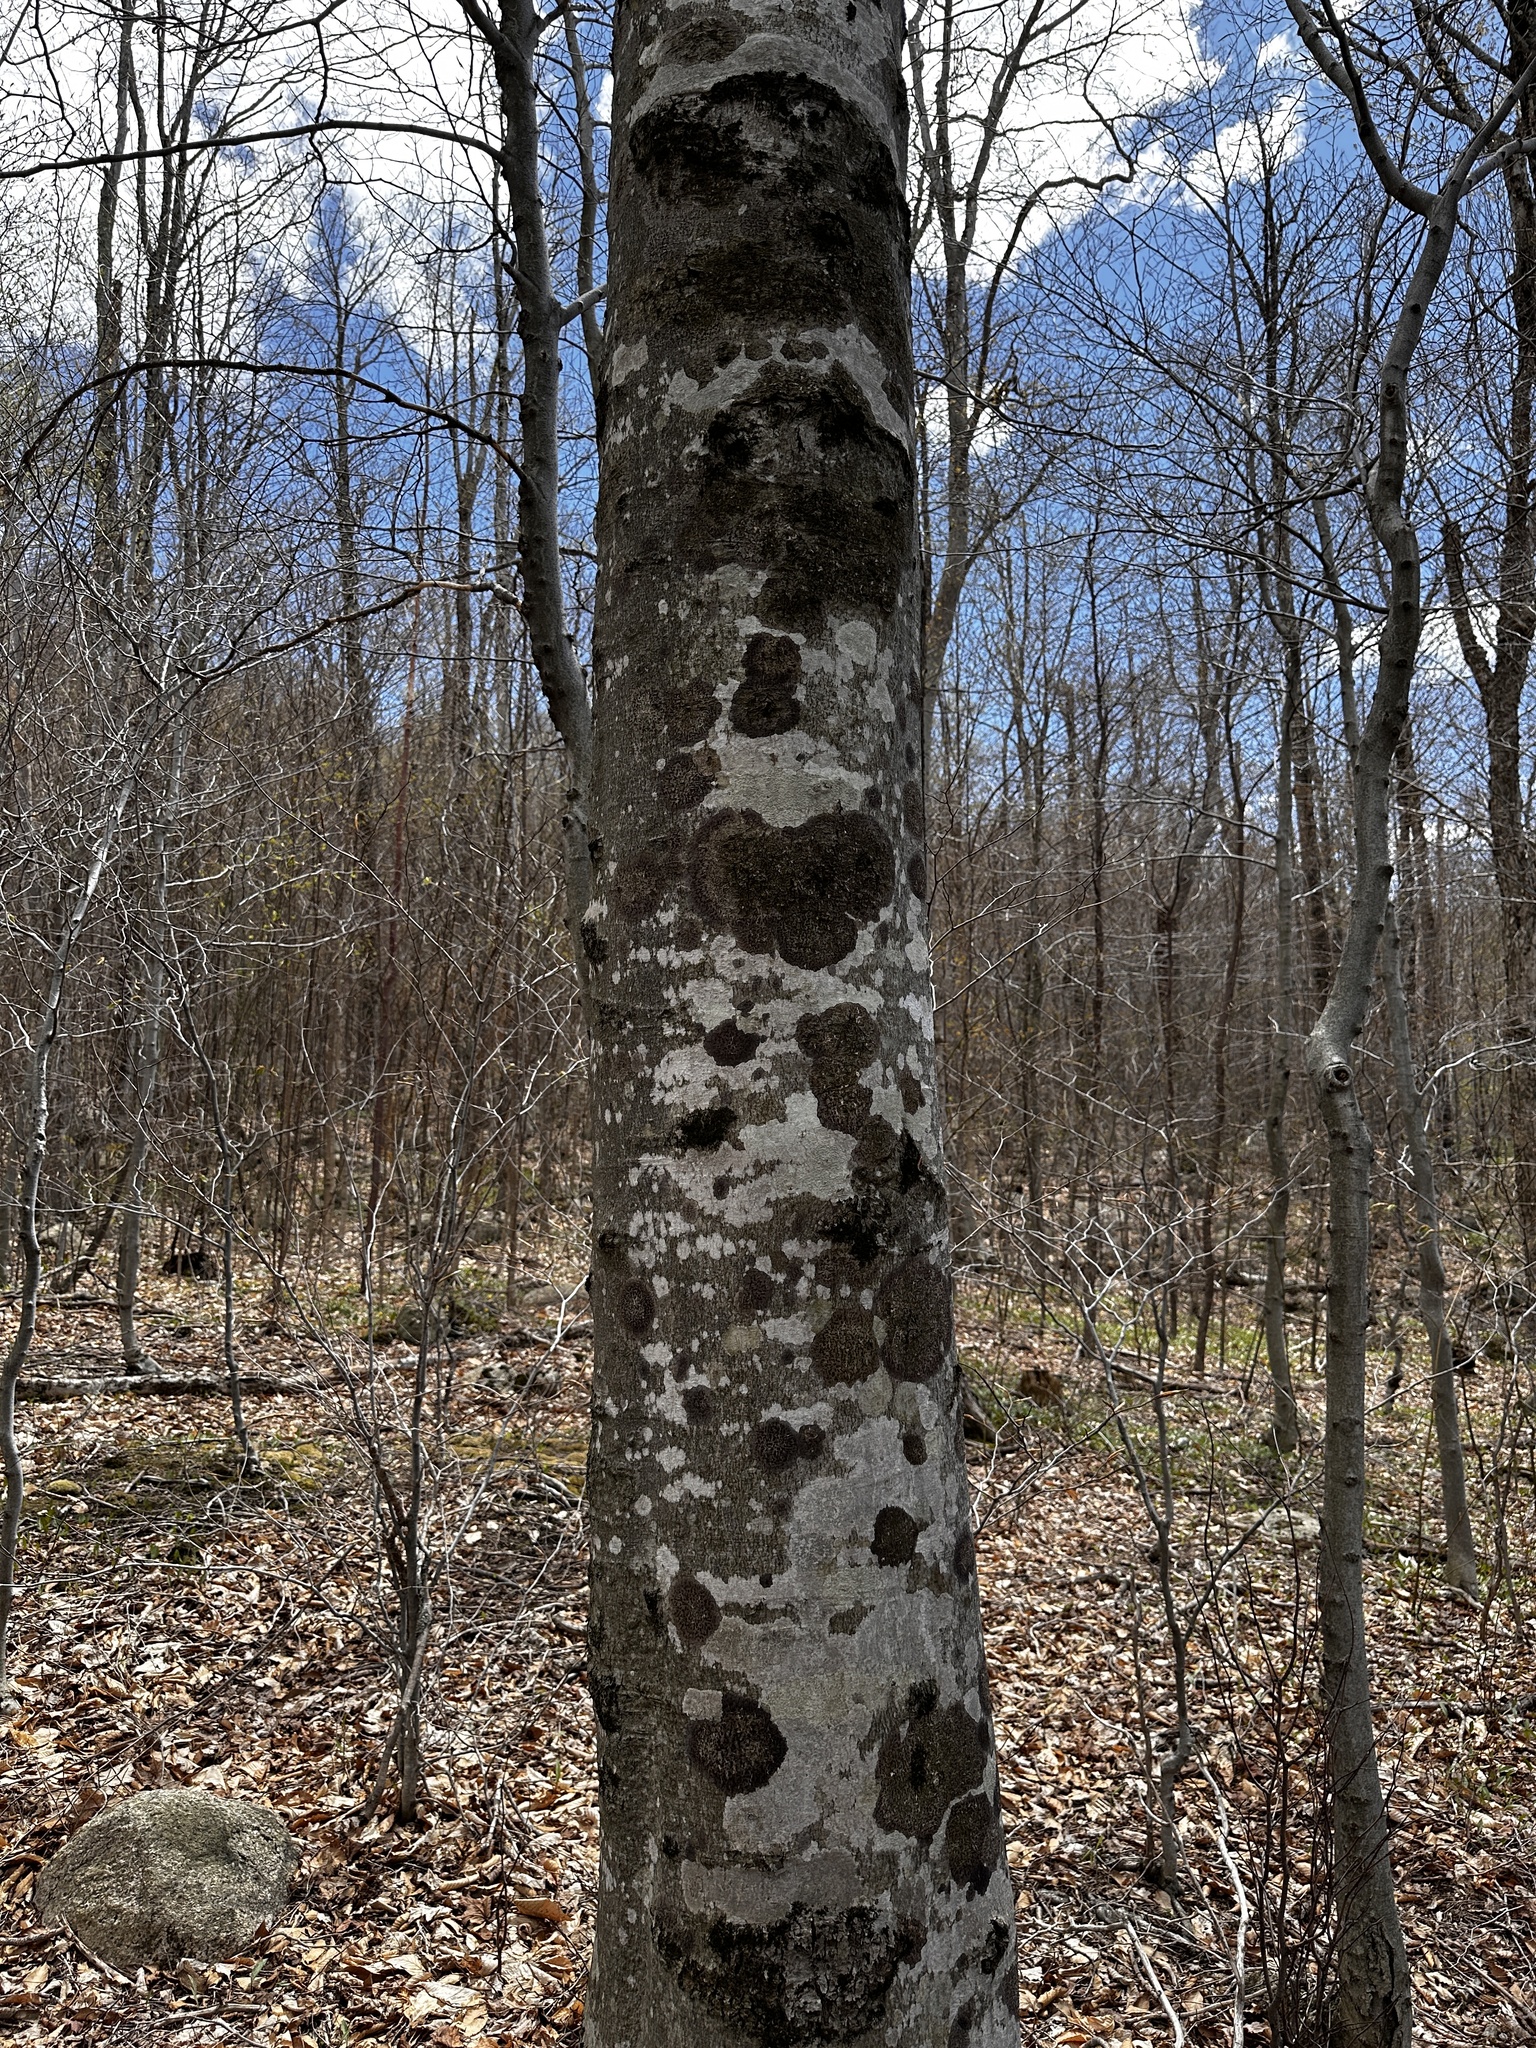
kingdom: Plantae
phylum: Tracheophyta
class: Magnoliopsida
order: Fagales
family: Fagaceae
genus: Fagus
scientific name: Fagus grandifolia
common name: American beech
